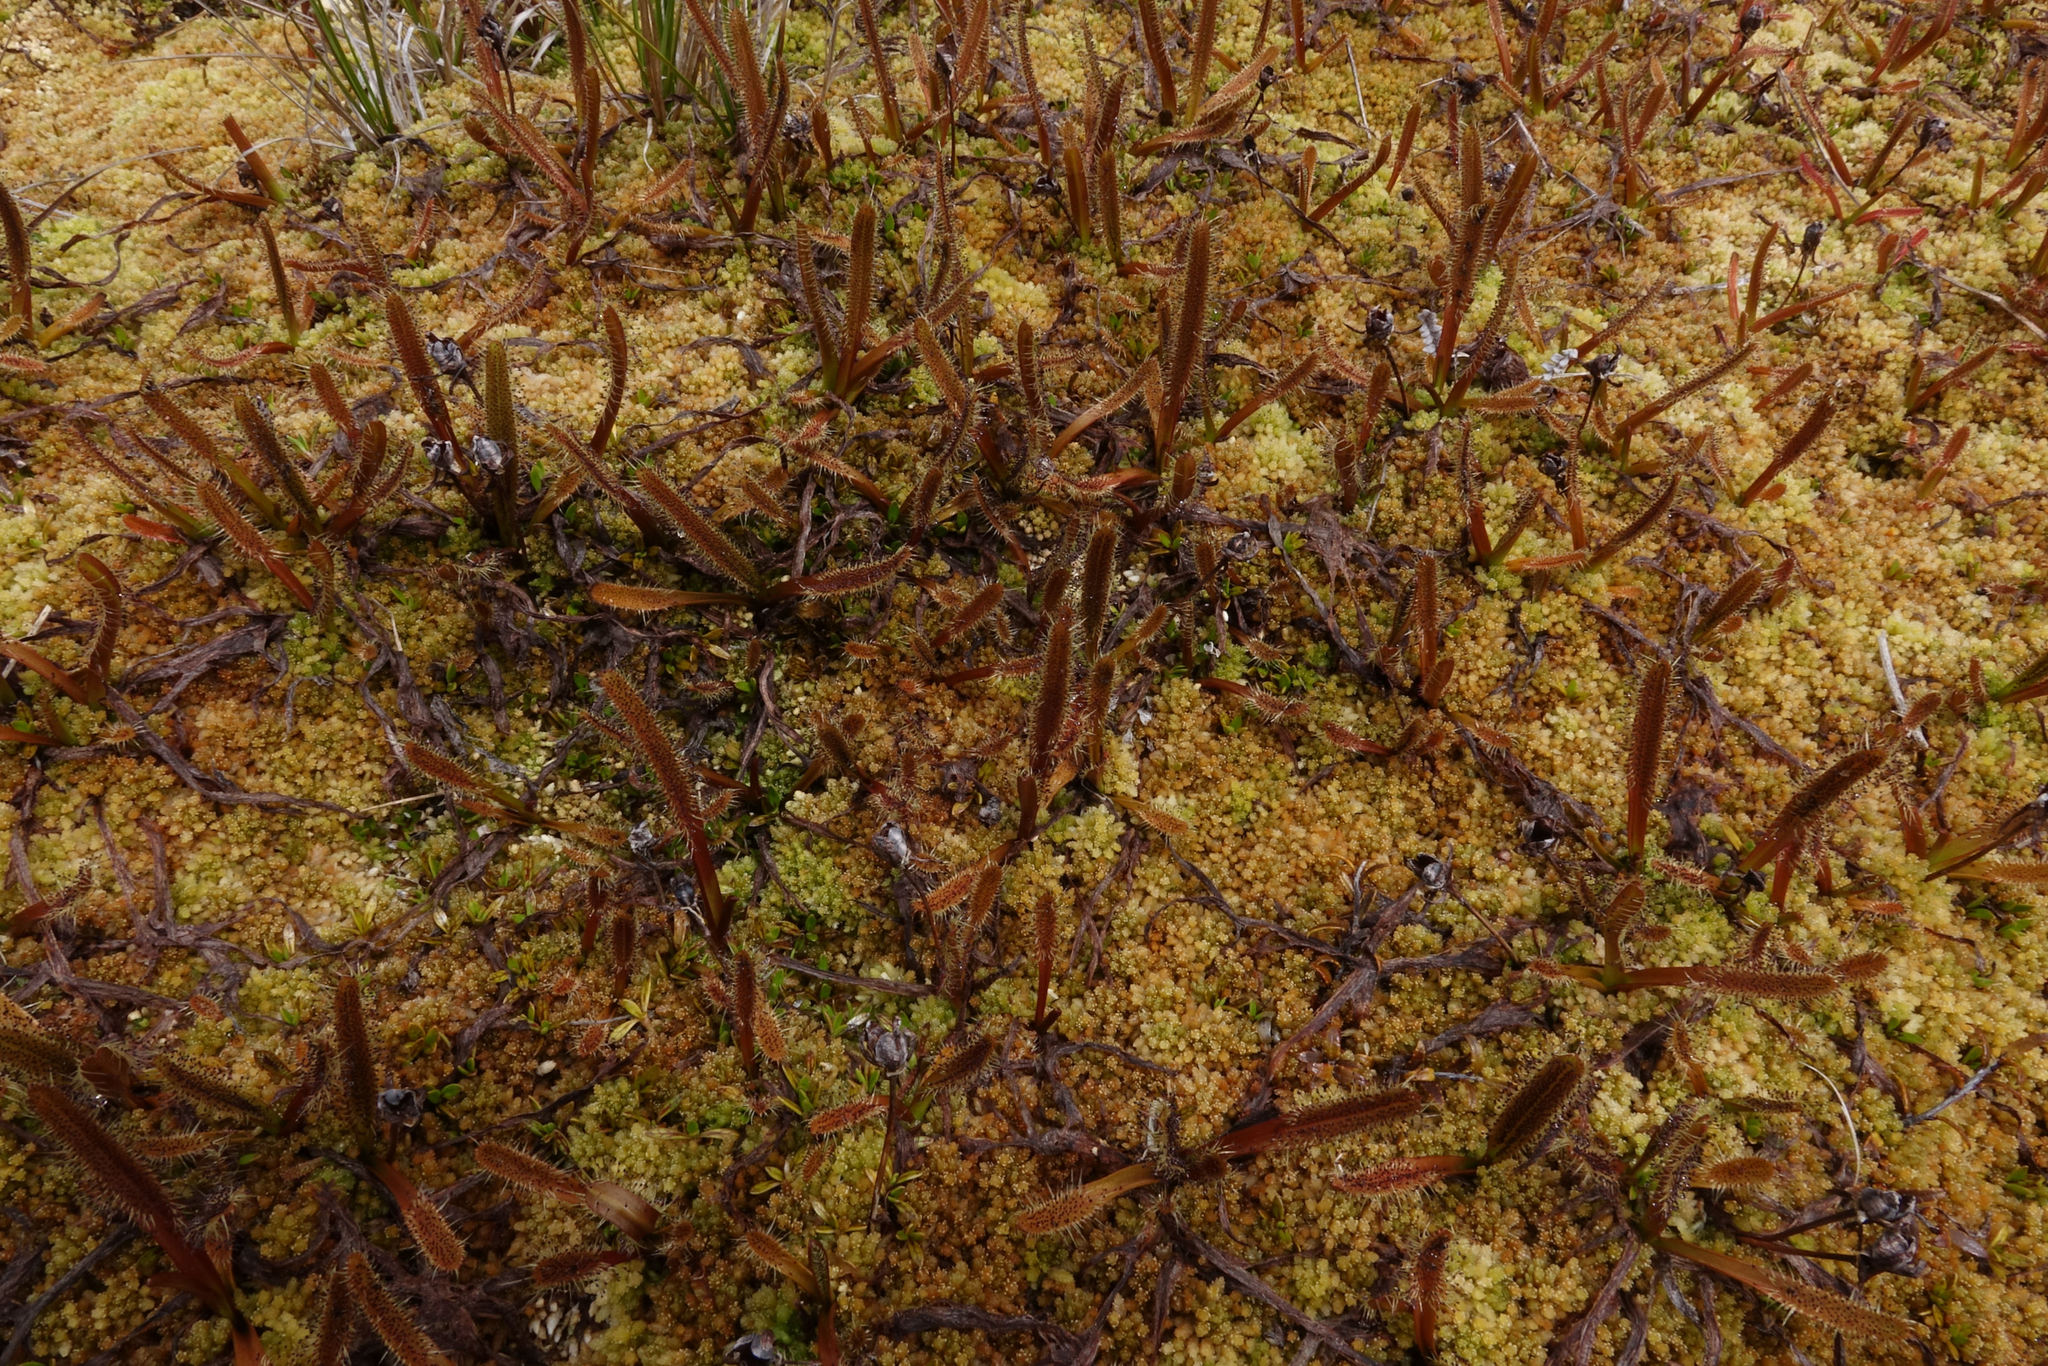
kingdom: Plantae
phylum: Tracheophyta
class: Magnoliopsida
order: Caryophyllales
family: Droseraceae
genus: Drosera
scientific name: Drosera arcturi
